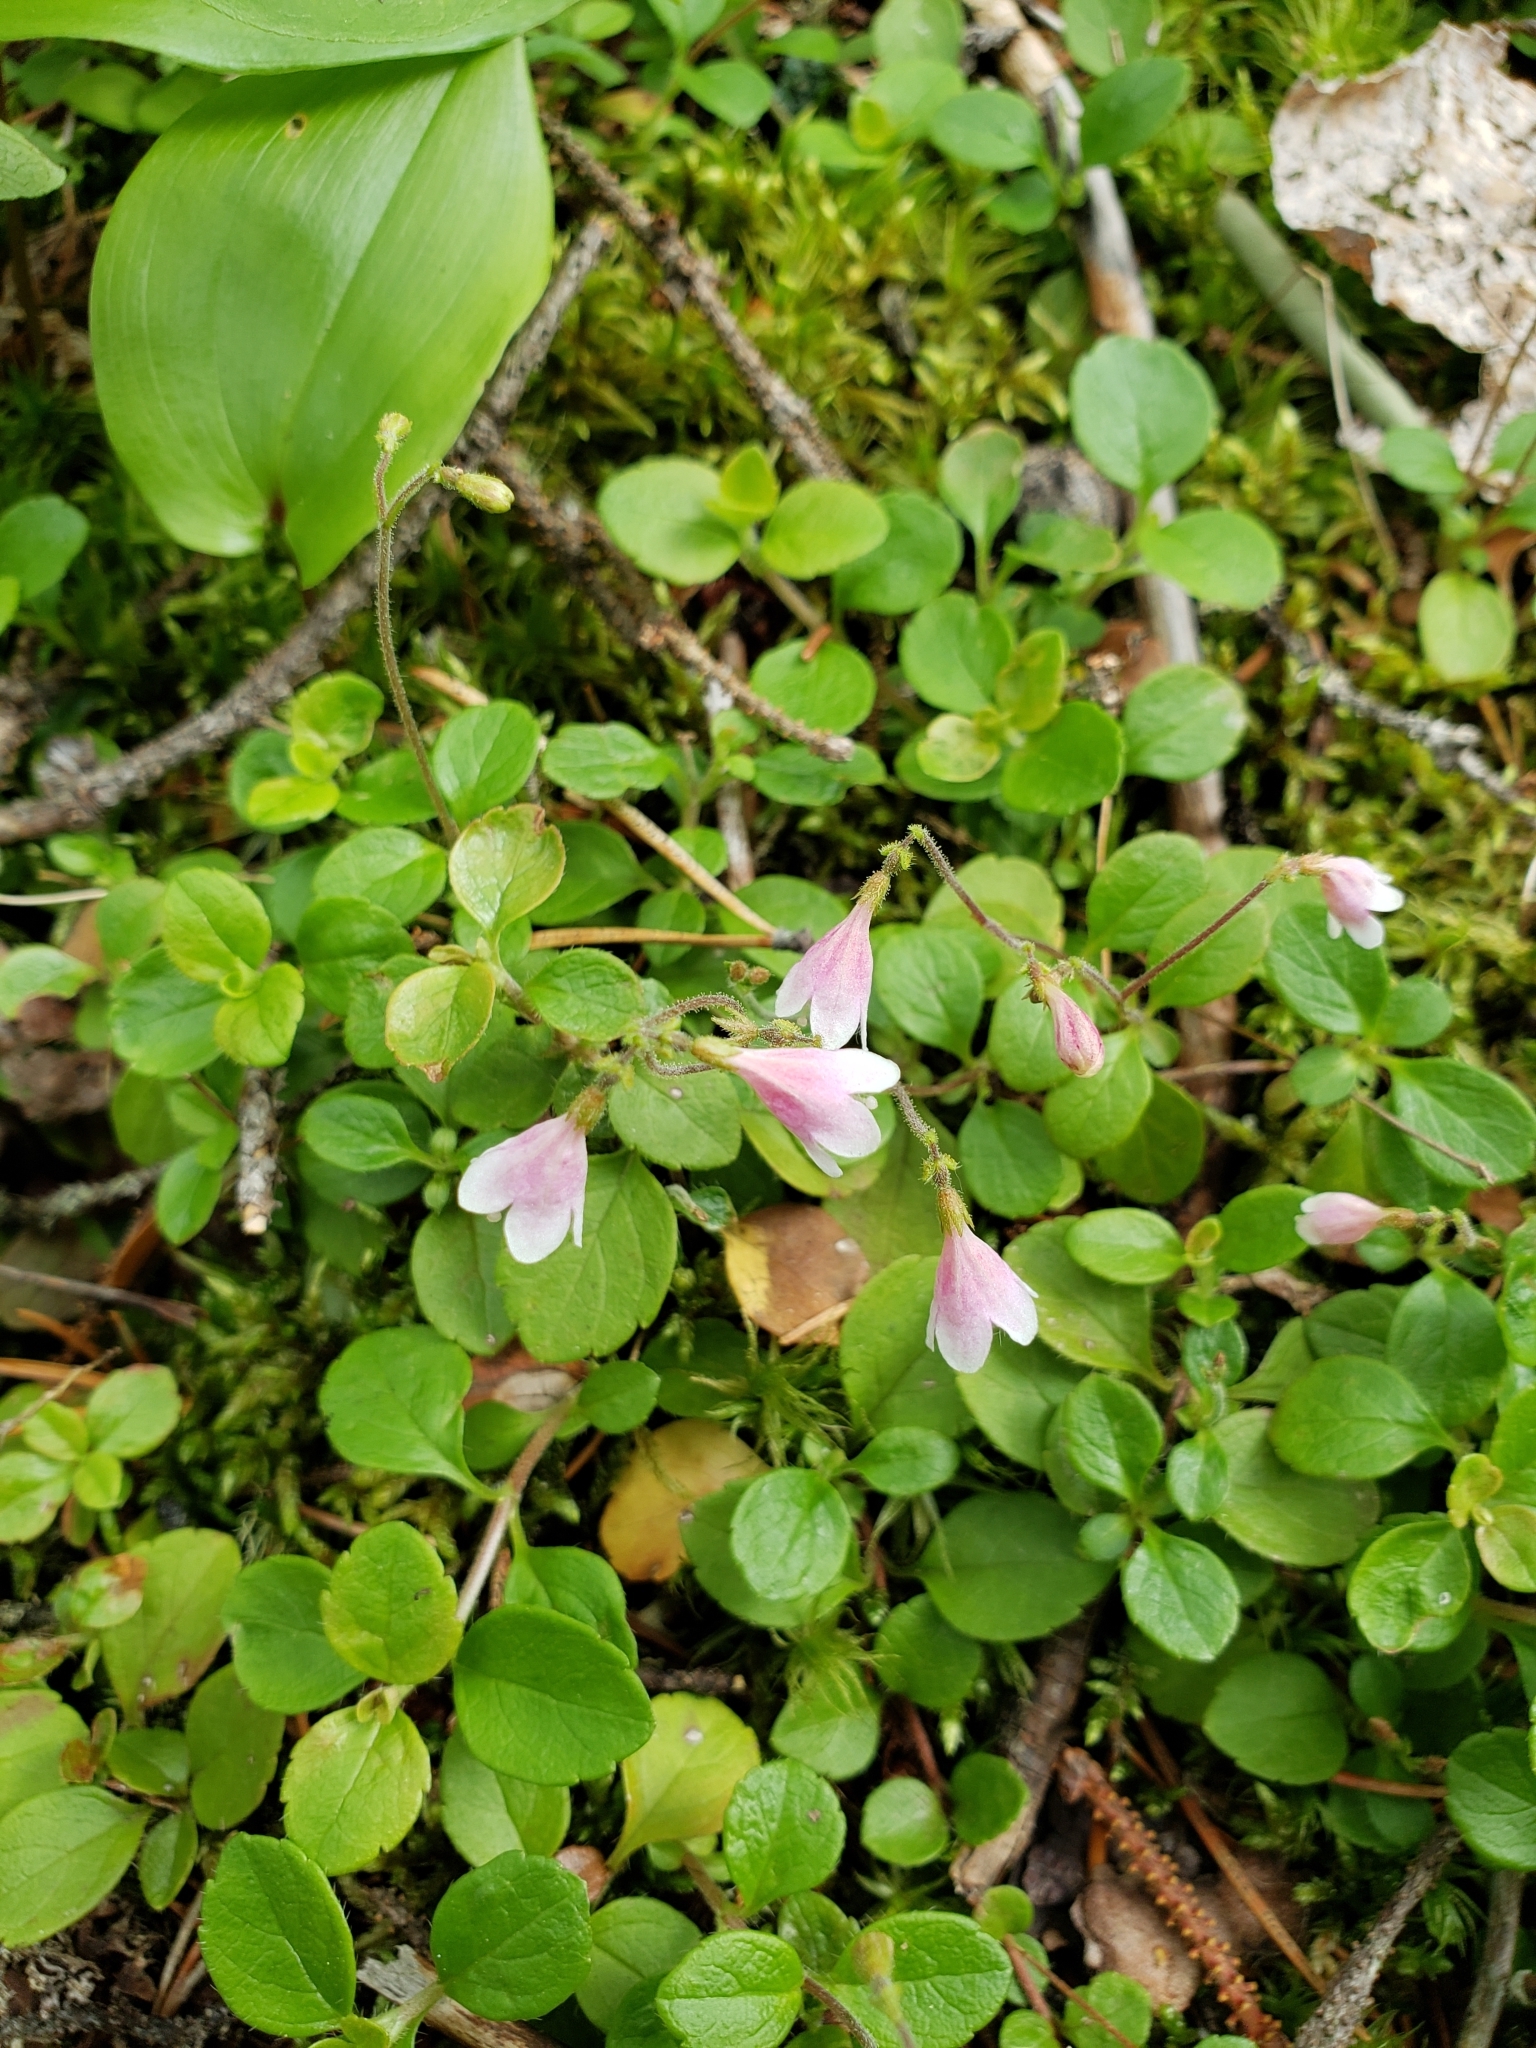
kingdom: Plantae
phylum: Tracheophyta
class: Magnoliopsida
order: Dipsacales
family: Caprifoliaceae
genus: Linnaea
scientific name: Linnaea borealis
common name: Twinflower
